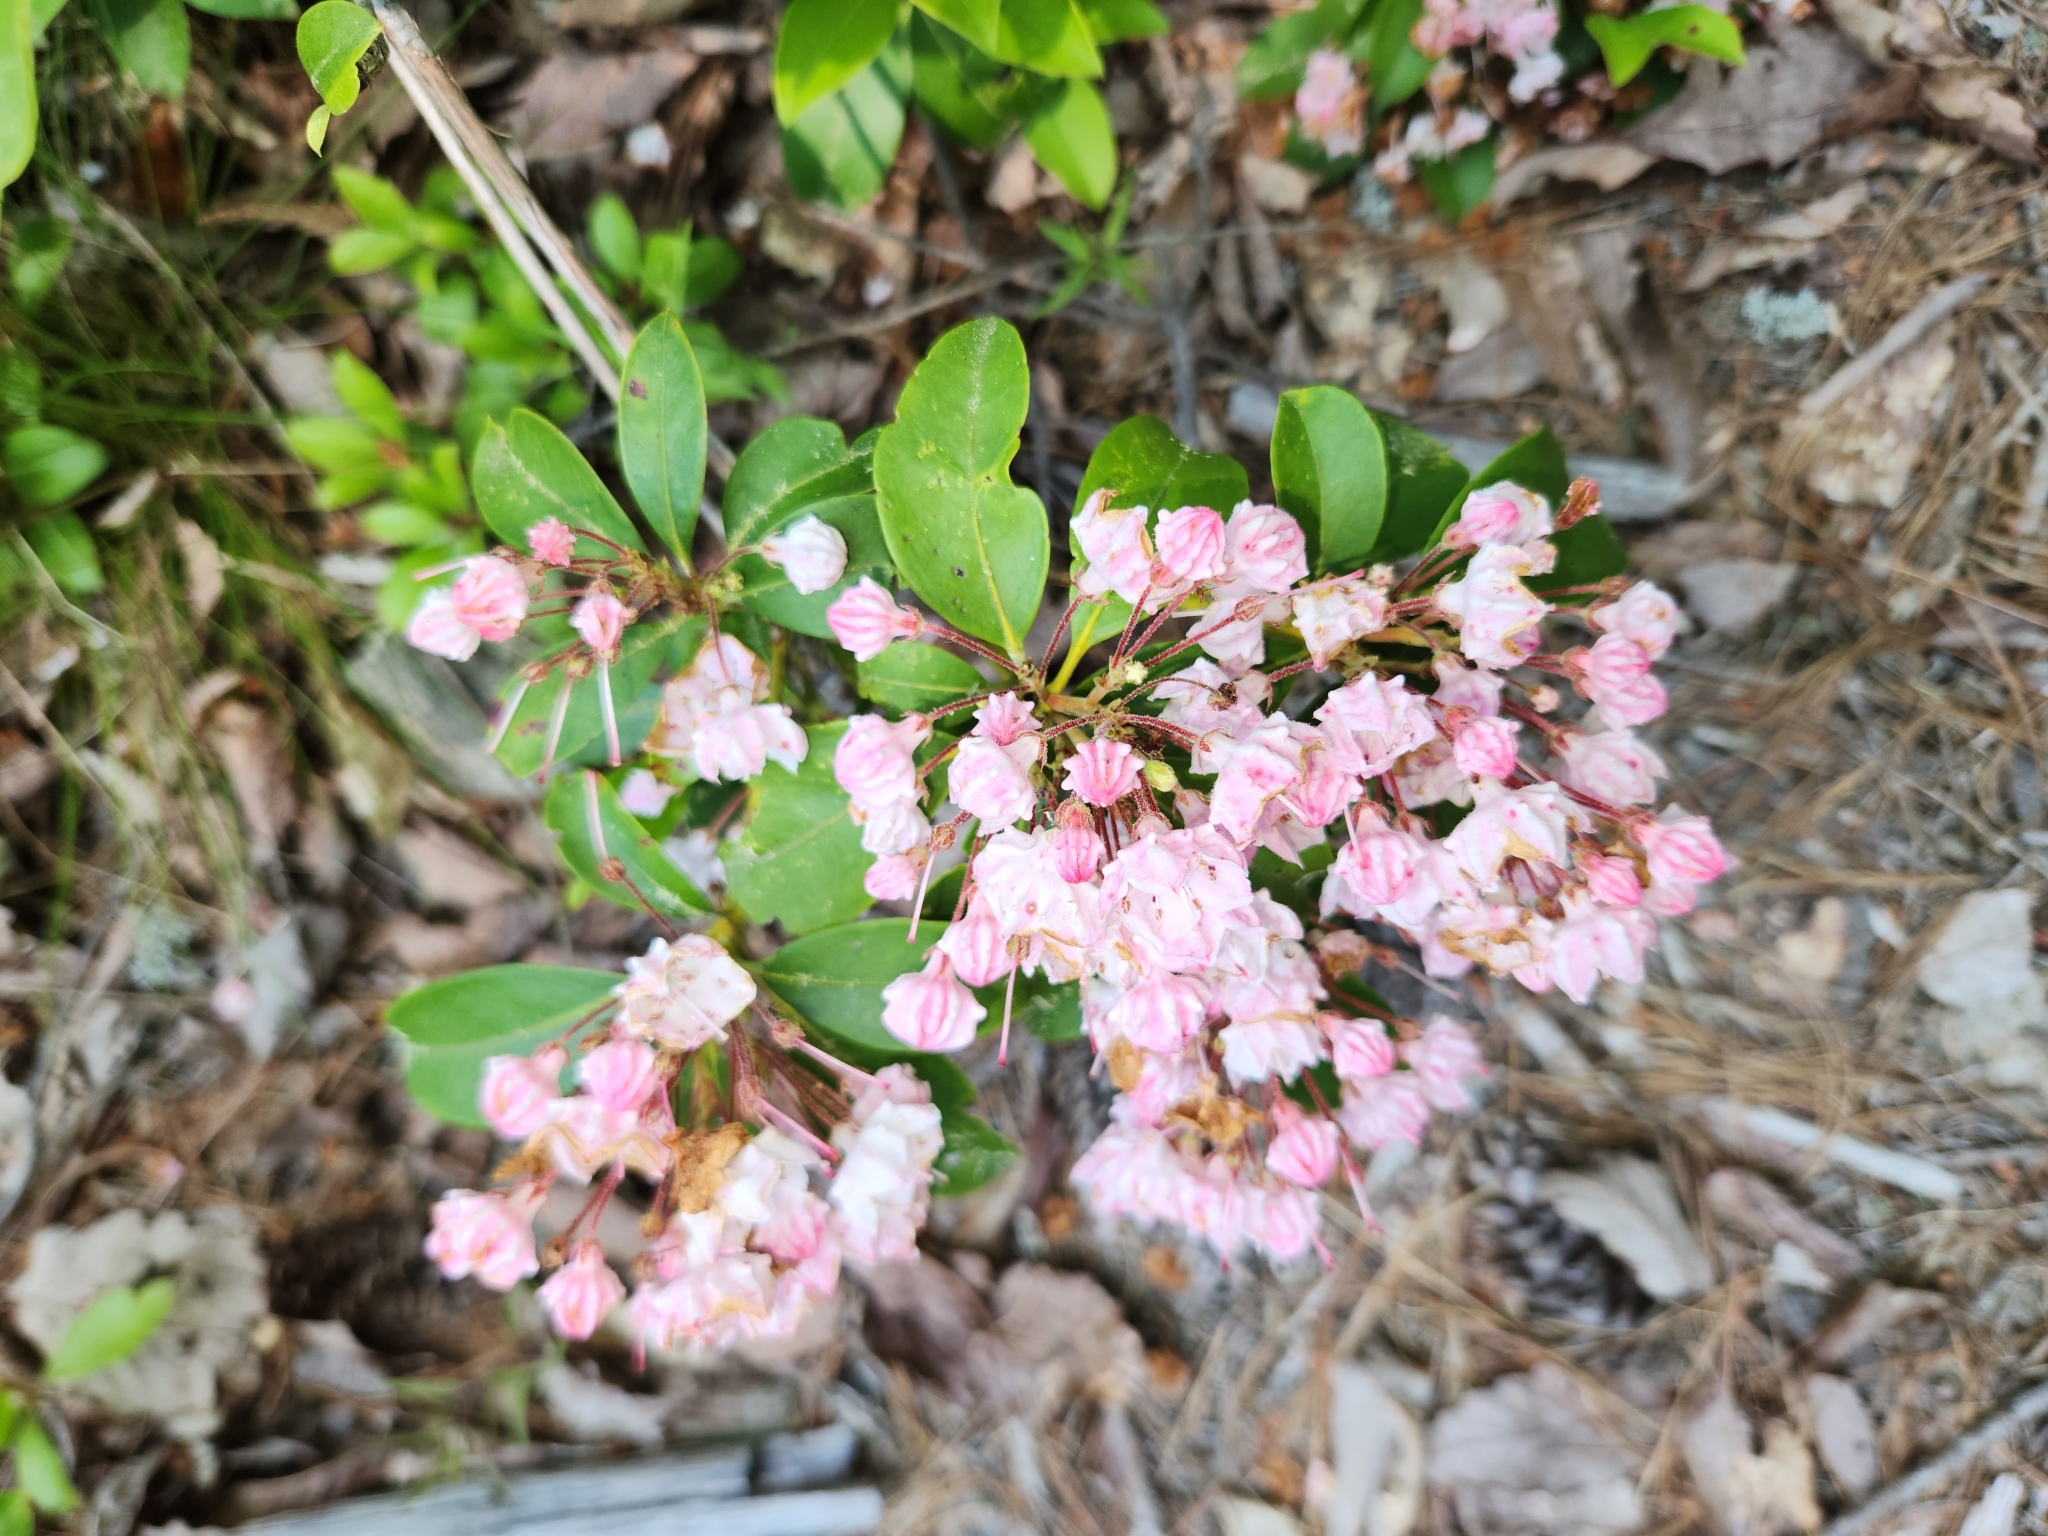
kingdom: Plantae
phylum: Tracheophyta
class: Magnoliopsida
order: Ericales
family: Ericaceae
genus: Kalmia
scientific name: Kalmia latifolia
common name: Mountain-laurel
